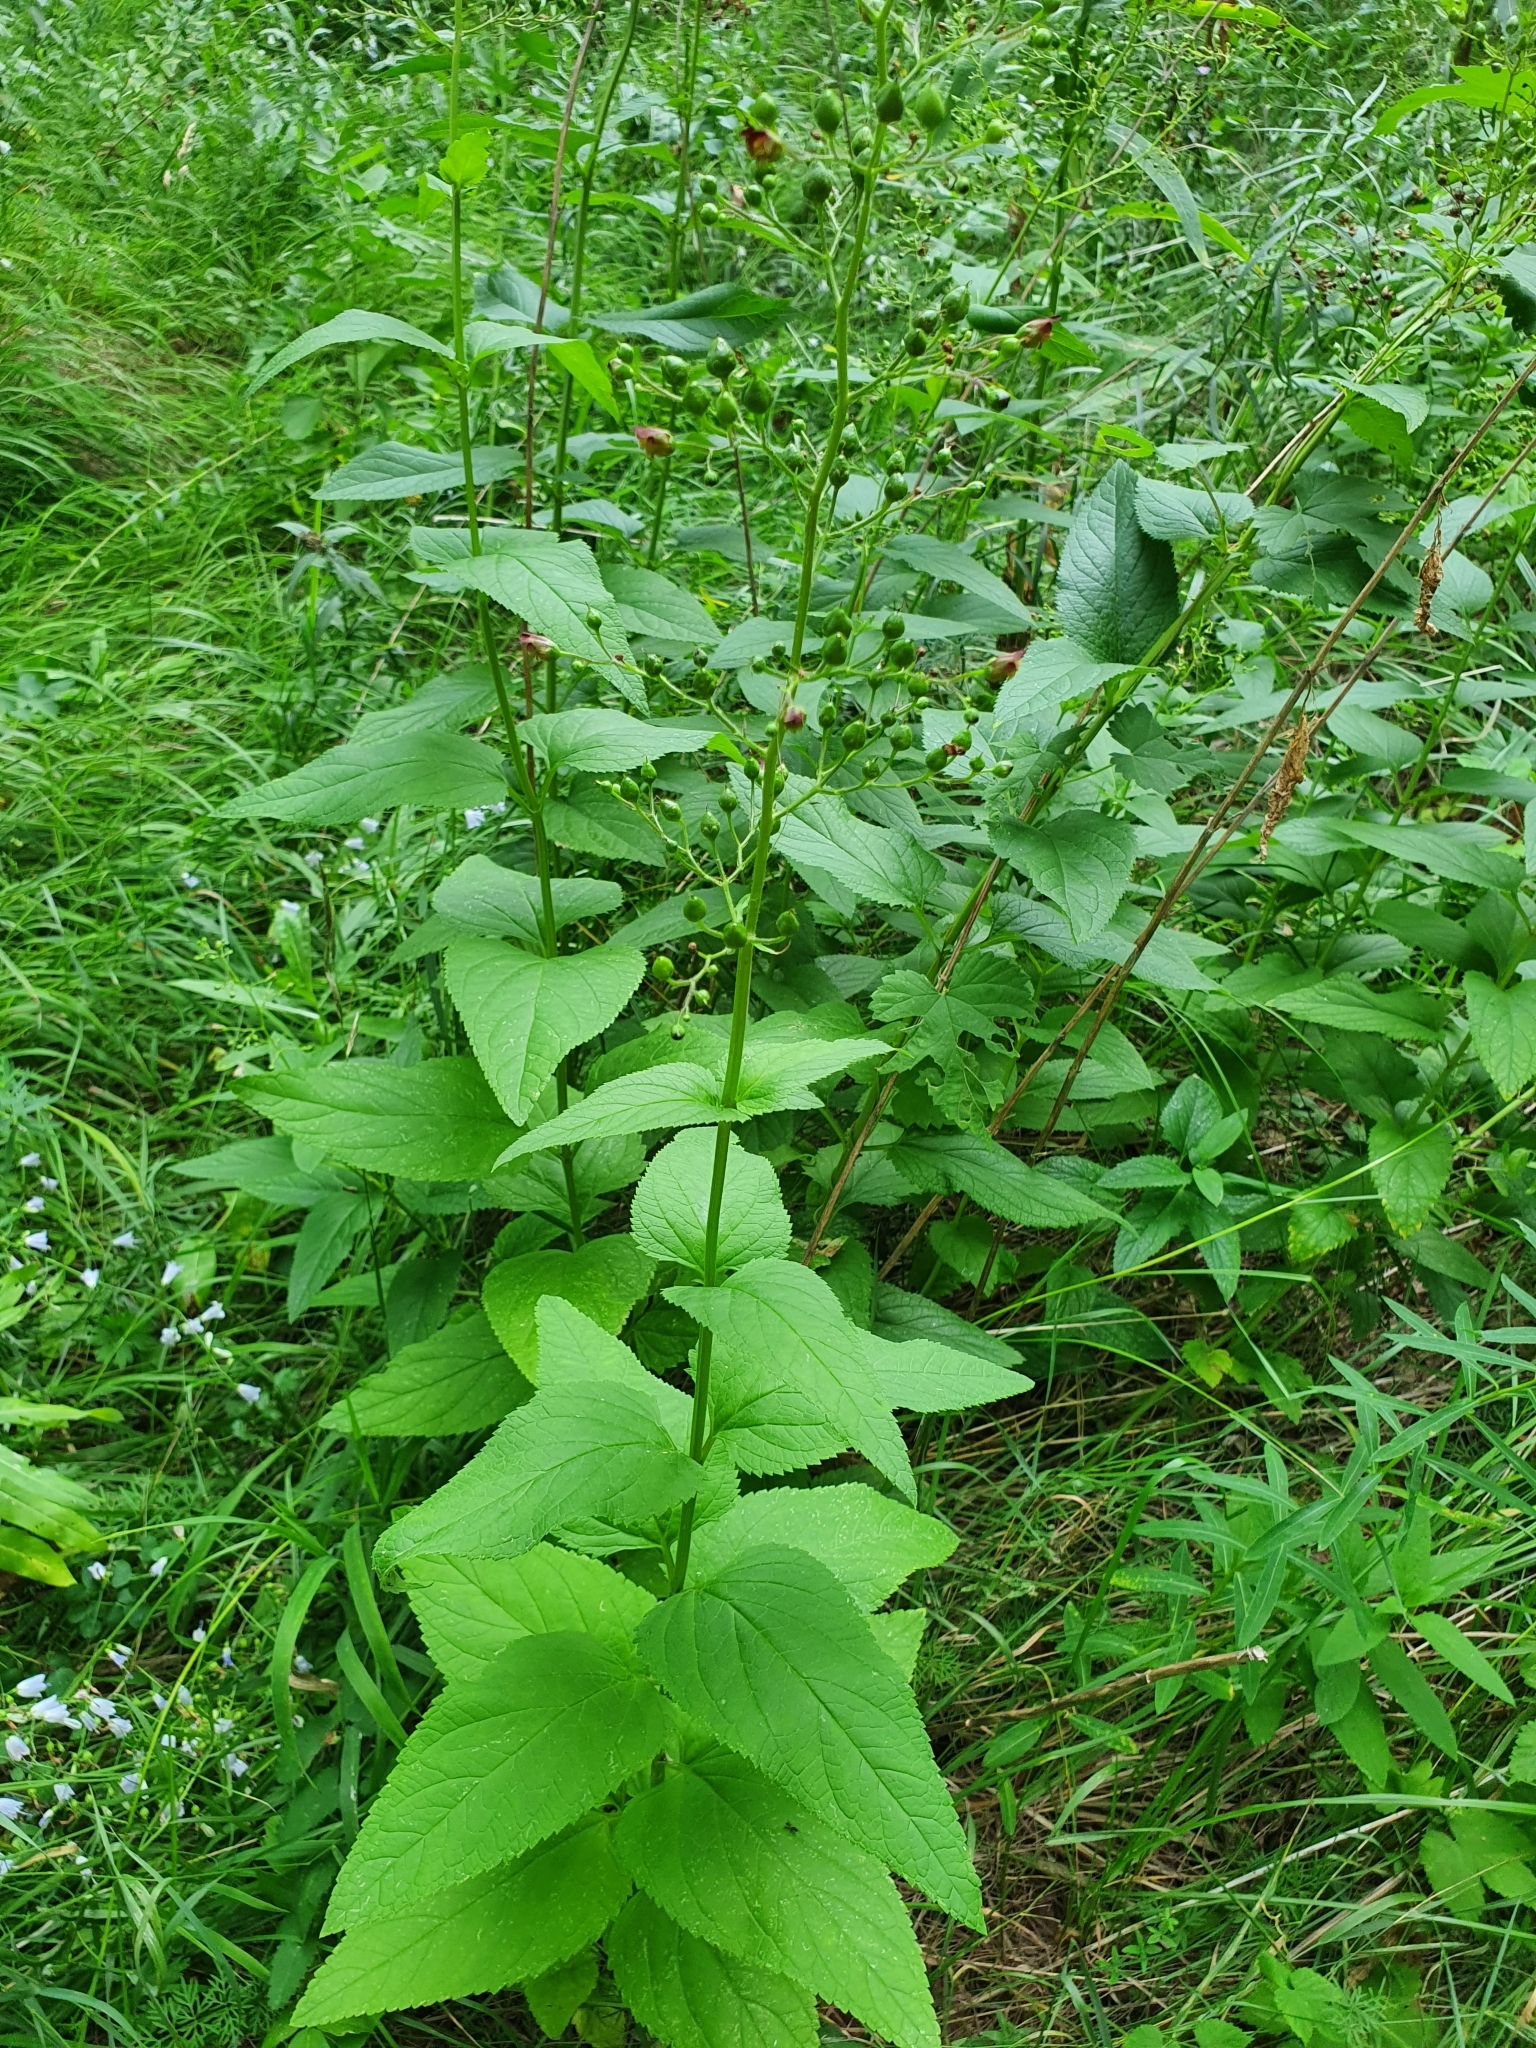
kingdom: Plantae
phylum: Tracheophyta
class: Magnoliopsida
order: Lamiales
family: Scrophulariaceae
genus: Scrophularia
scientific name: Scrophularia nodosa
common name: Common figwort
